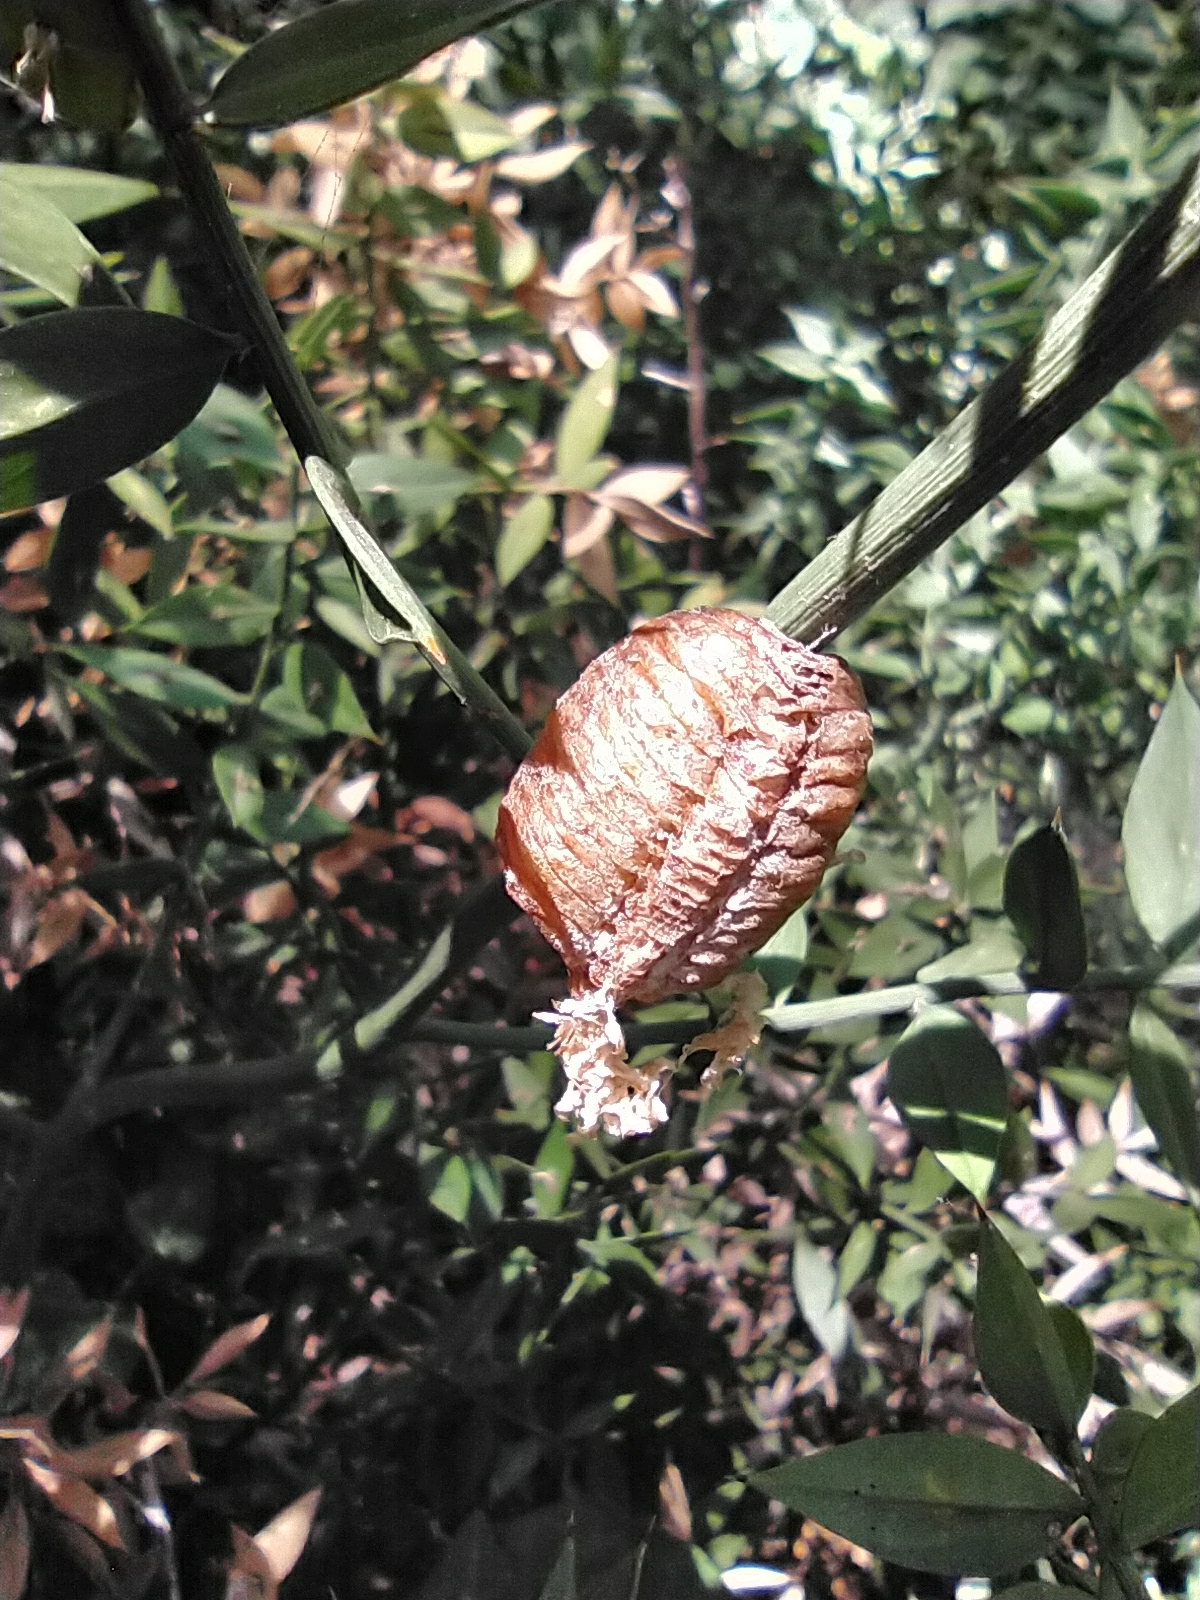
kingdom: Animalia
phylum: Arthropoda
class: Insecta
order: Mantodea
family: Mantidae
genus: Hierodula
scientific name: Hierodula transcaucasica
